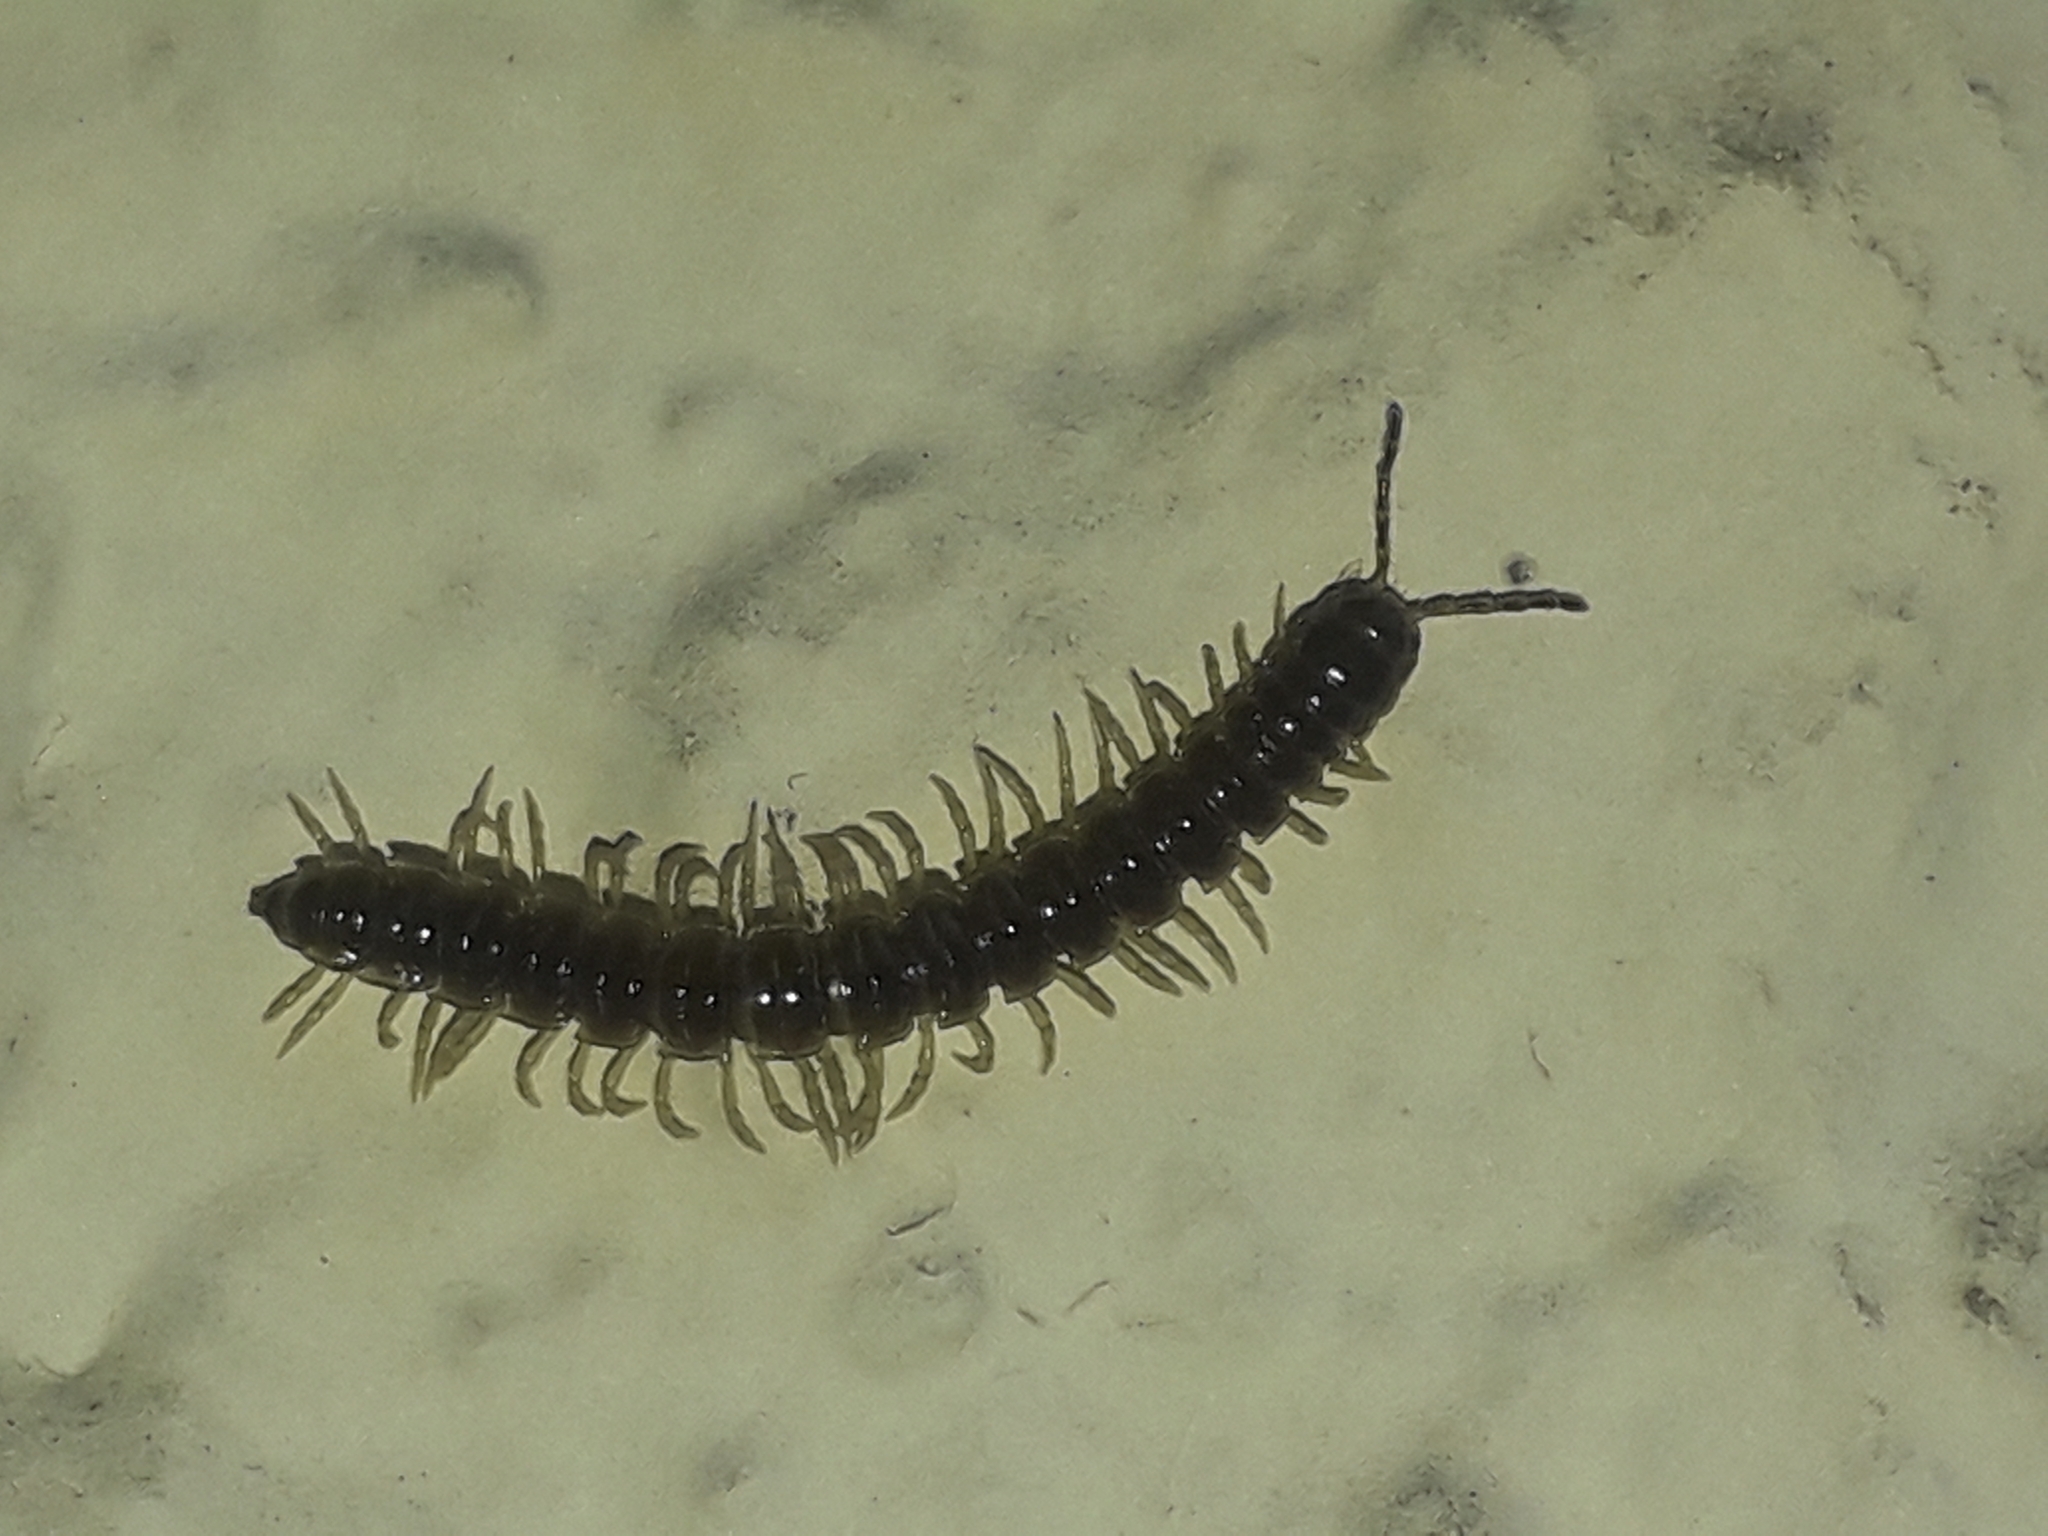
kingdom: Animalia
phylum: Arthropoda
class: Diplopoda
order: Polydesmida
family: Paradoxosomatidae
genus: Oxidus
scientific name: Oxidus gracilis
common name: Greenhouse millipede
